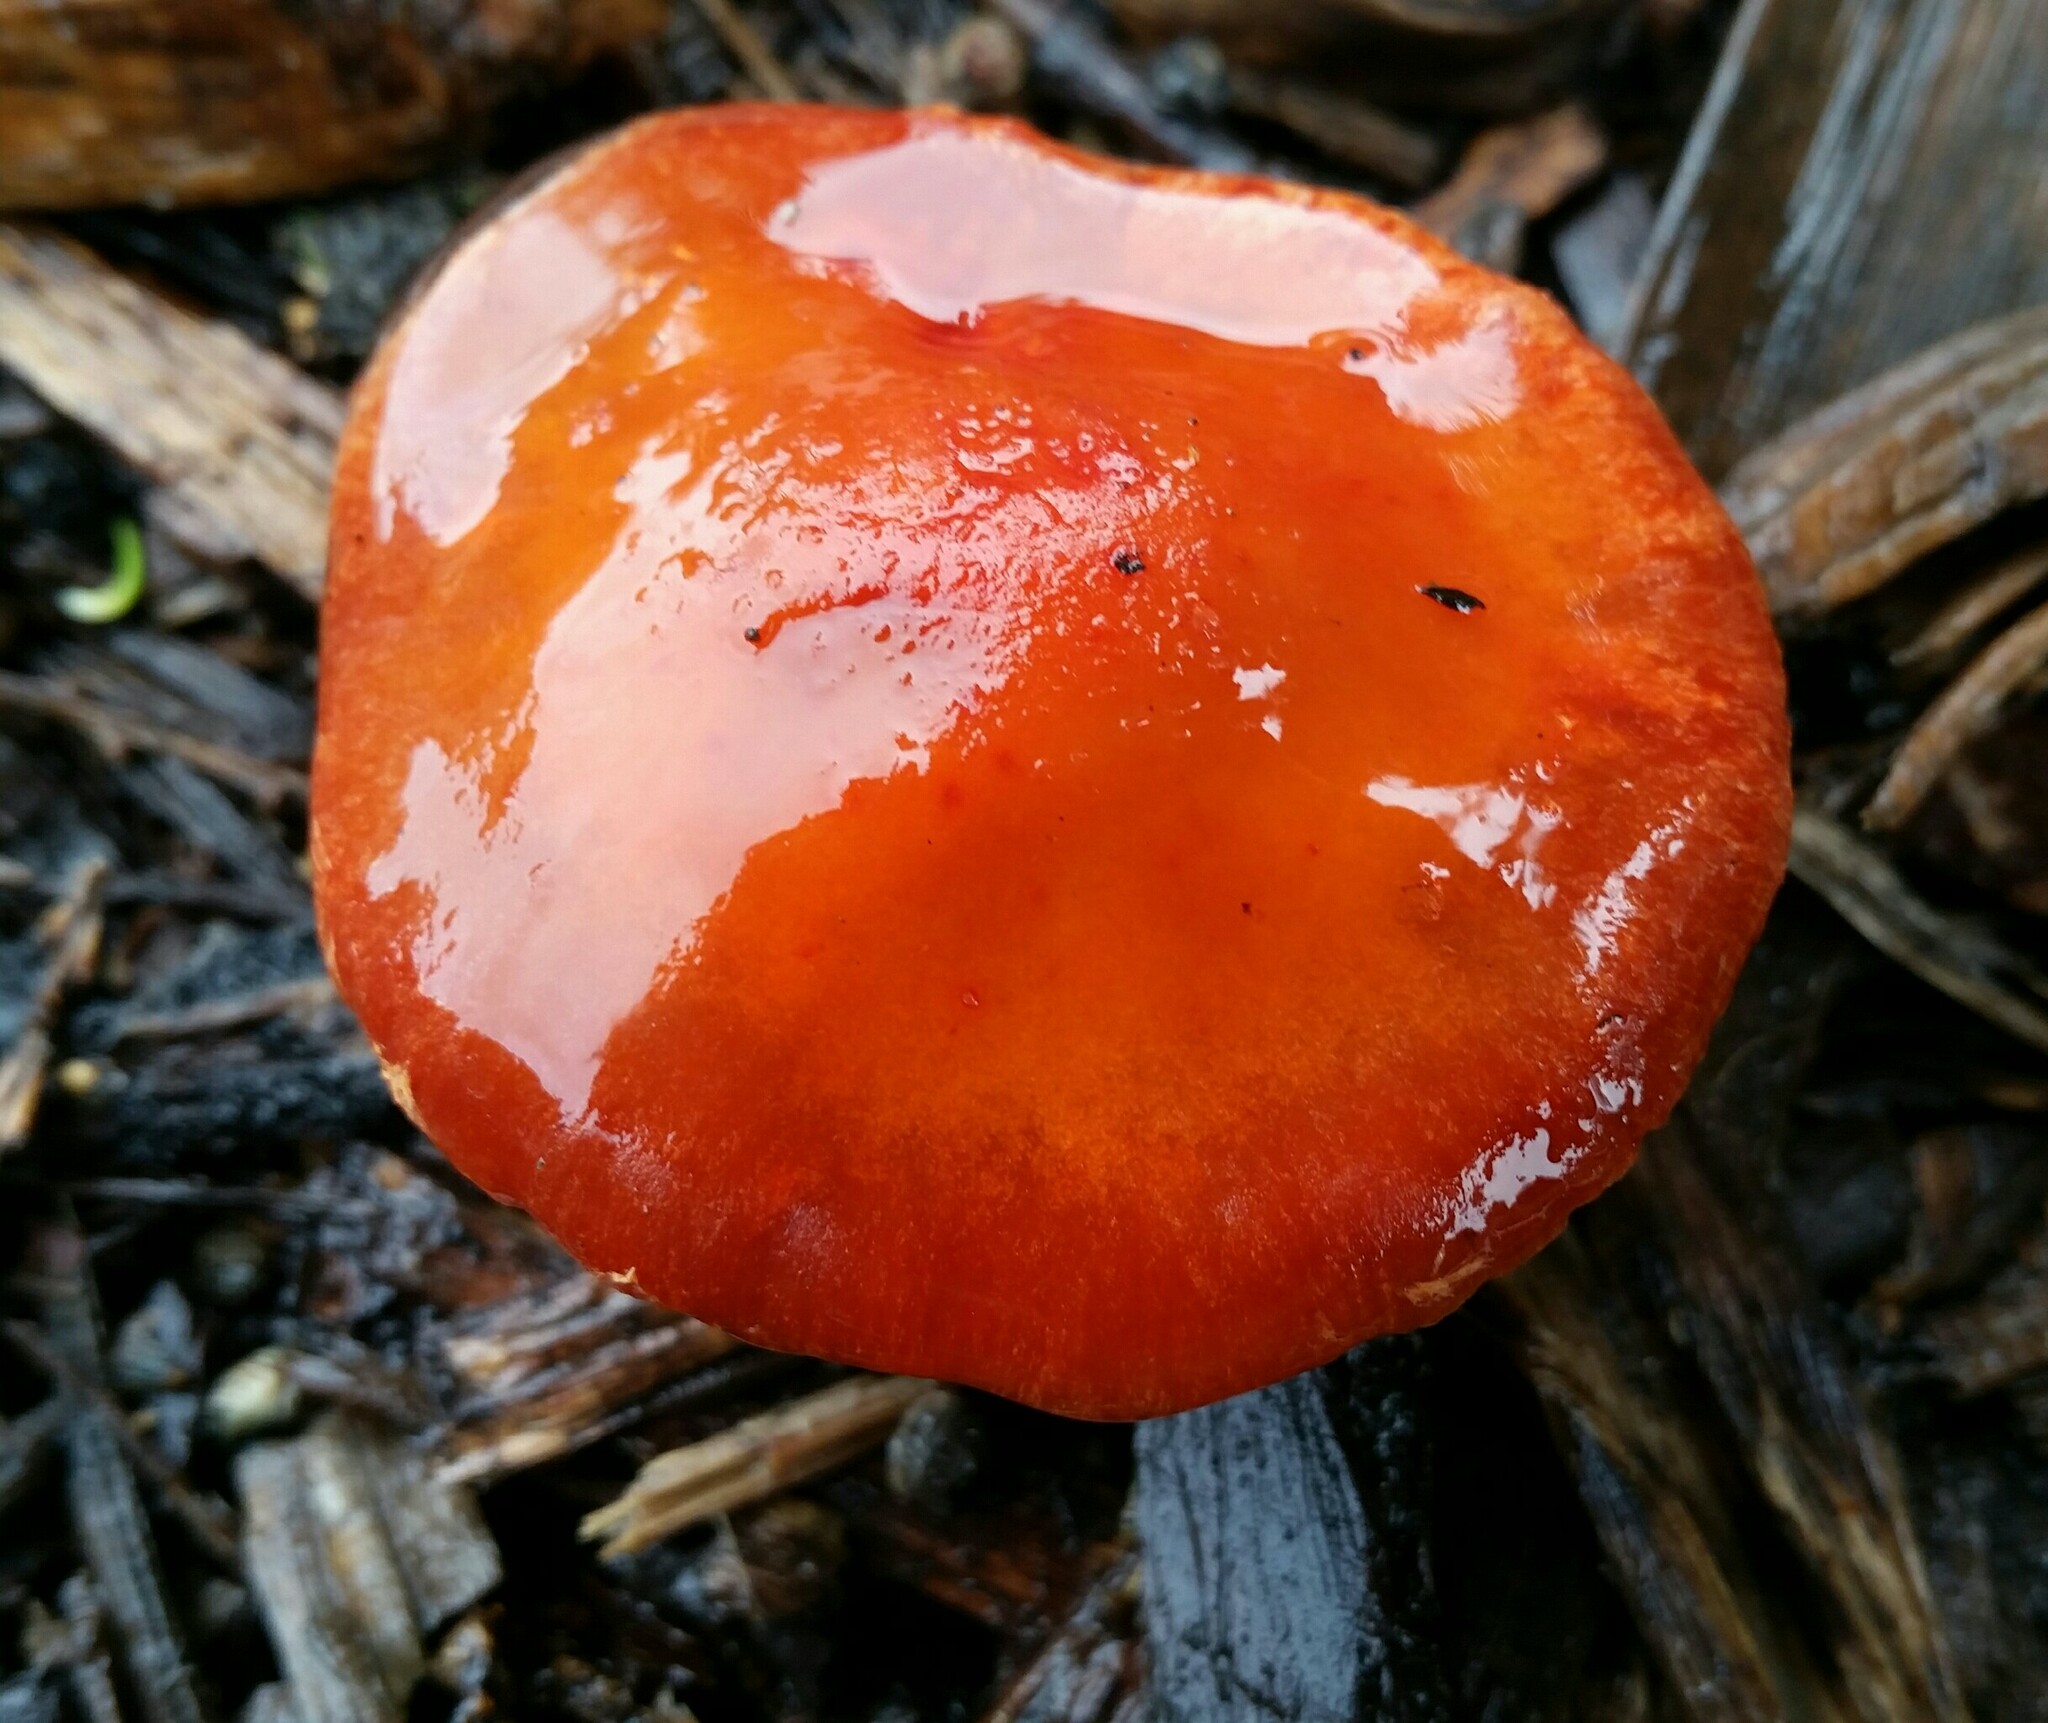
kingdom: Fungi
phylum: Basidiomycota
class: Agaricomycetes
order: Agaricales
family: Strophariaceae
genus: Leratiomyces
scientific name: Leratiomyces ceres
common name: Redlead roundhead
